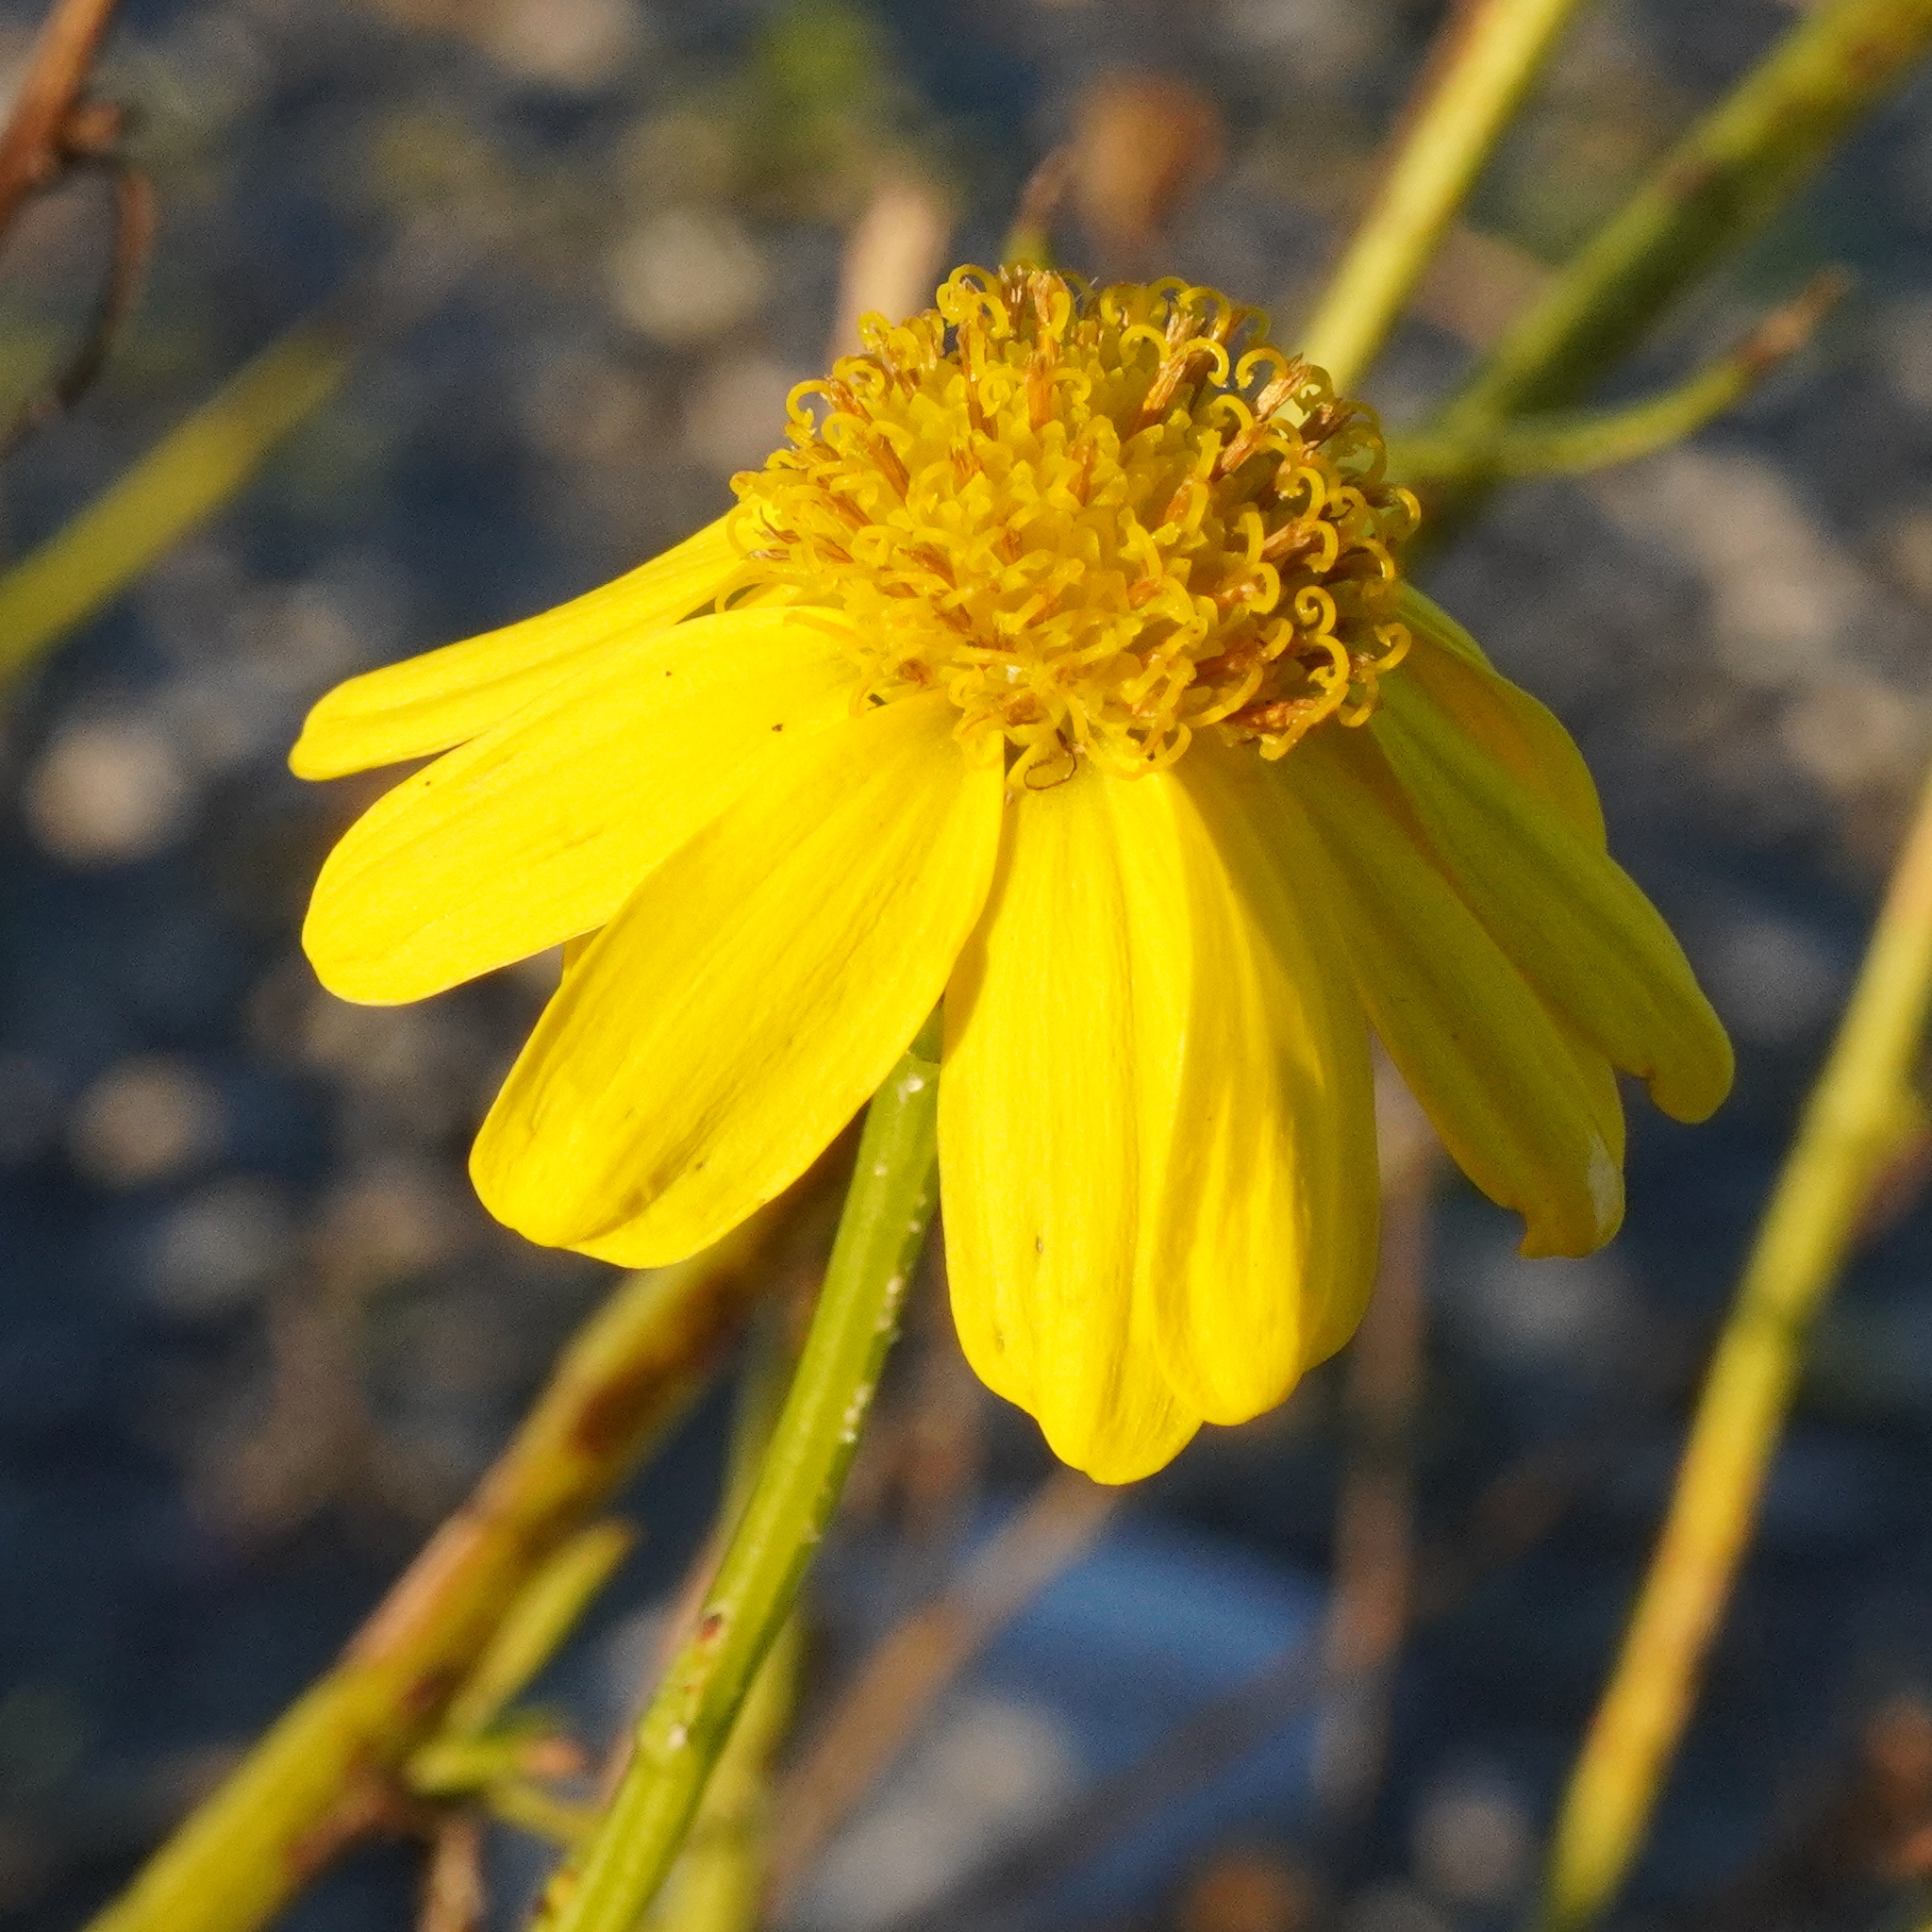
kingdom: Plantae
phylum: Tracheophyta
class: Magnoliopsida
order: Asterales
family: Asteraceae
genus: Senecio
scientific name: Senecio inaequidens
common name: Narrow-leaved ragwort
